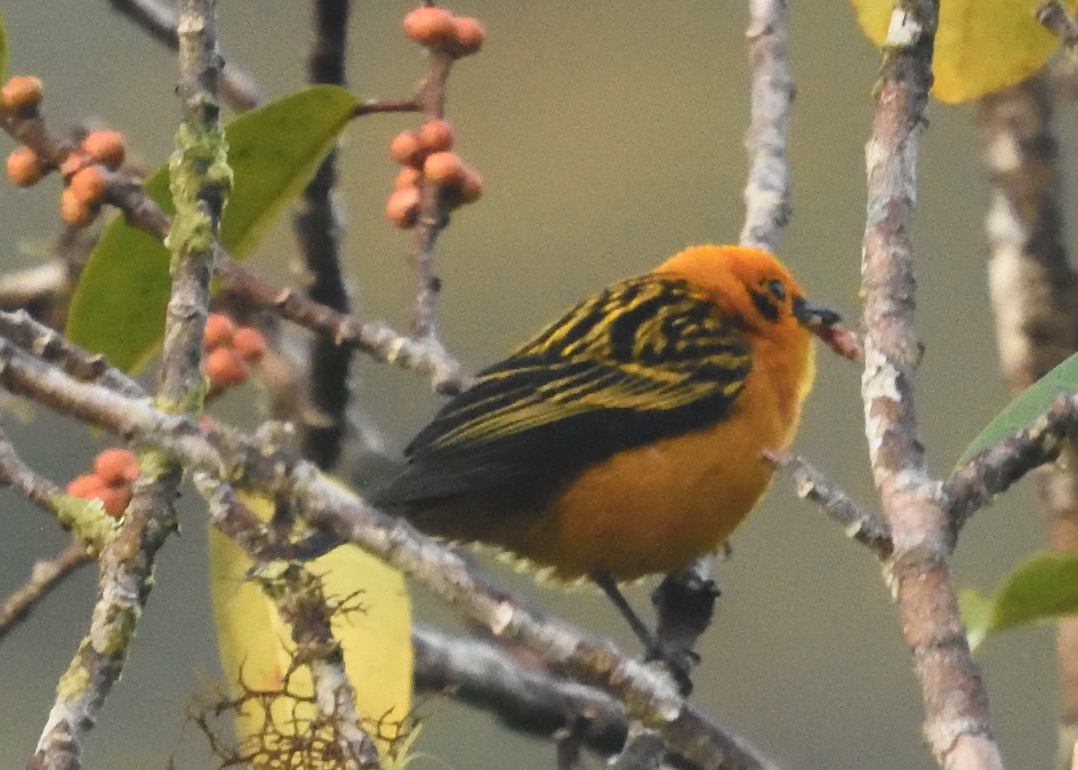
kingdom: Animalia
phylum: Chordata
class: Aves
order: Passeriformes
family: Thraupidae
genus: Tangara
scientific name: Tangara arthus
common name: Golden tanager
